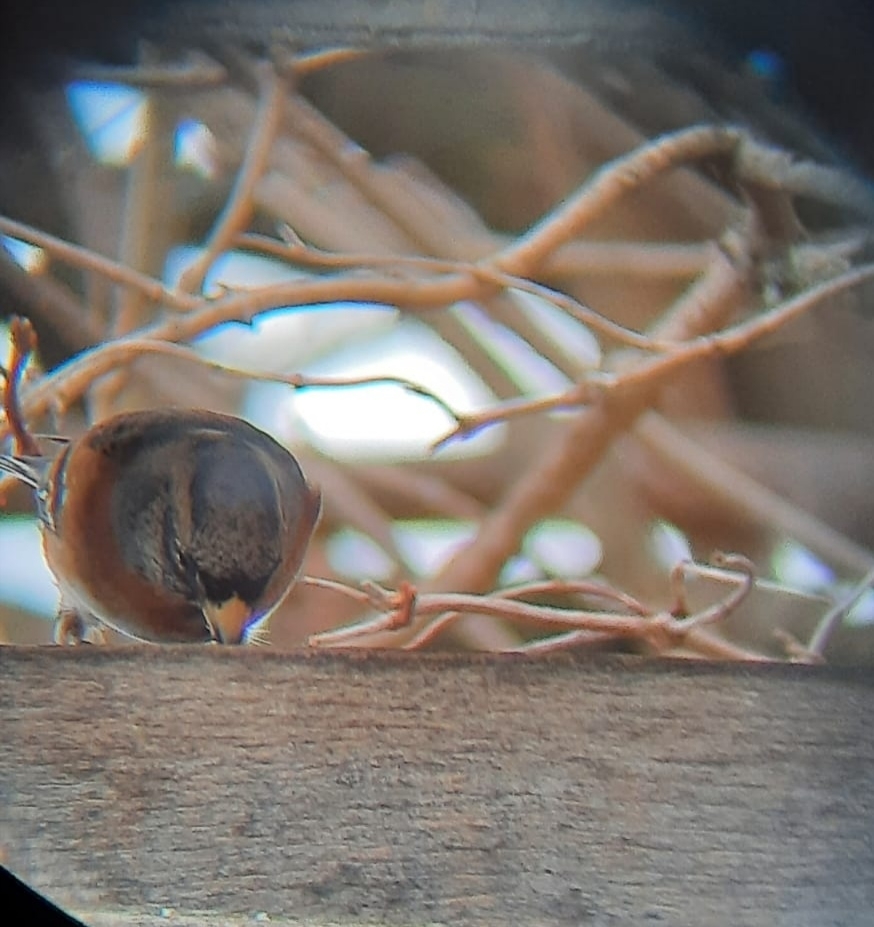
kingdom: Animalia
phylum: Chordata
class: Aves
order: Passeriformes
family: Fringillidae
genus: Fringilla
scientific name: Fringilla montifringilla
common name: Brambling
